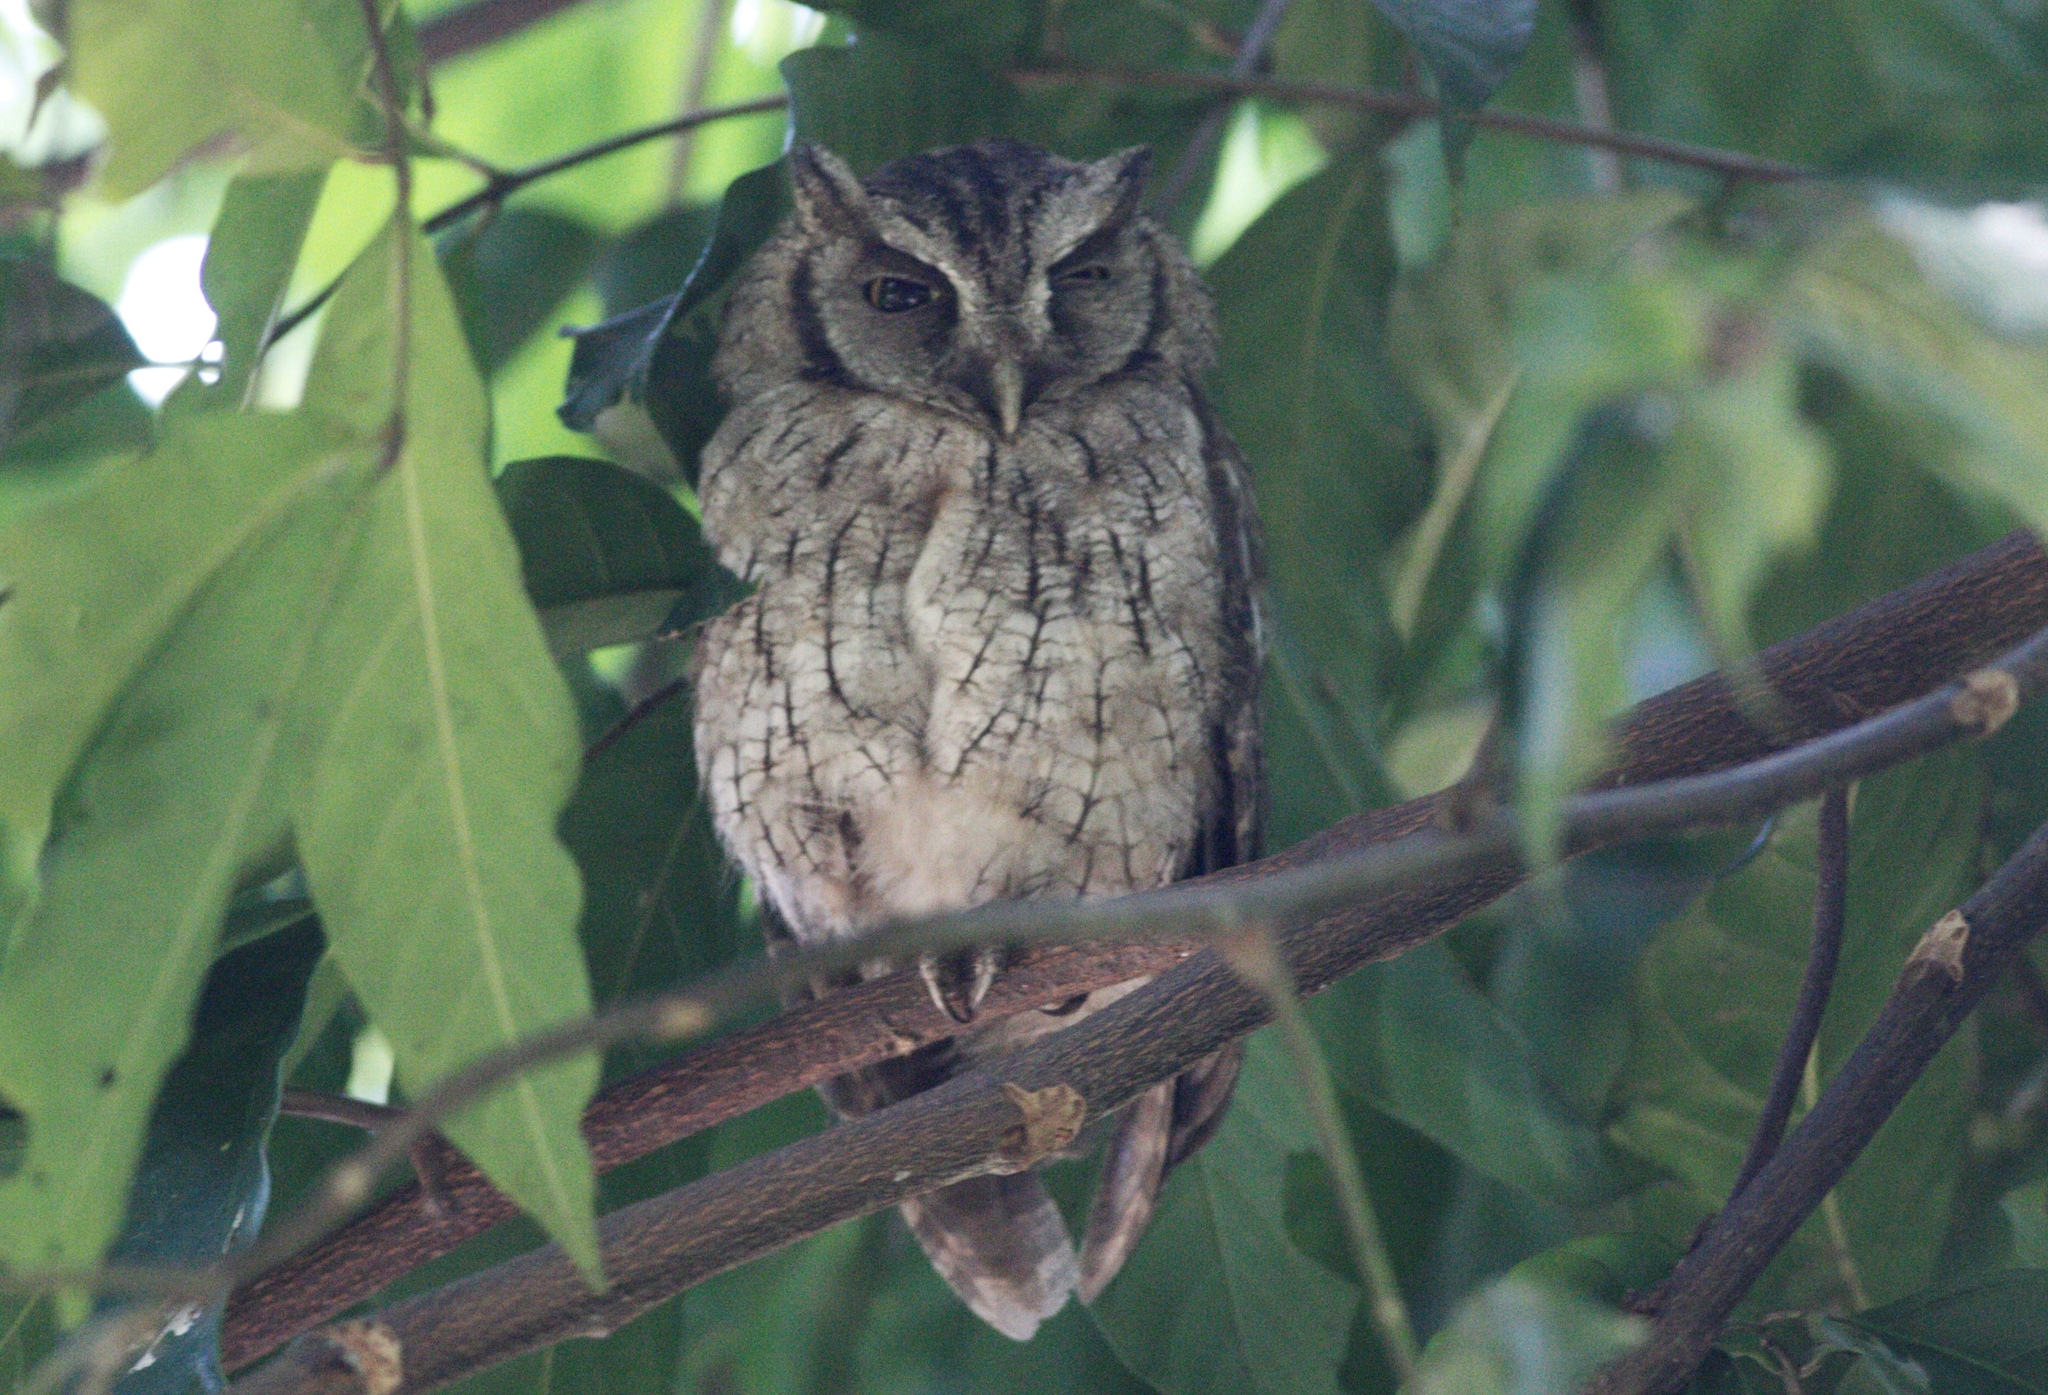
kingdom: Animalia
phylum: Chordata
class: Aves
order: Strigiformes
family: Strigidae
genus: Megascops
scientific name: Megascops choliba
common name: Tropical screech-owl
